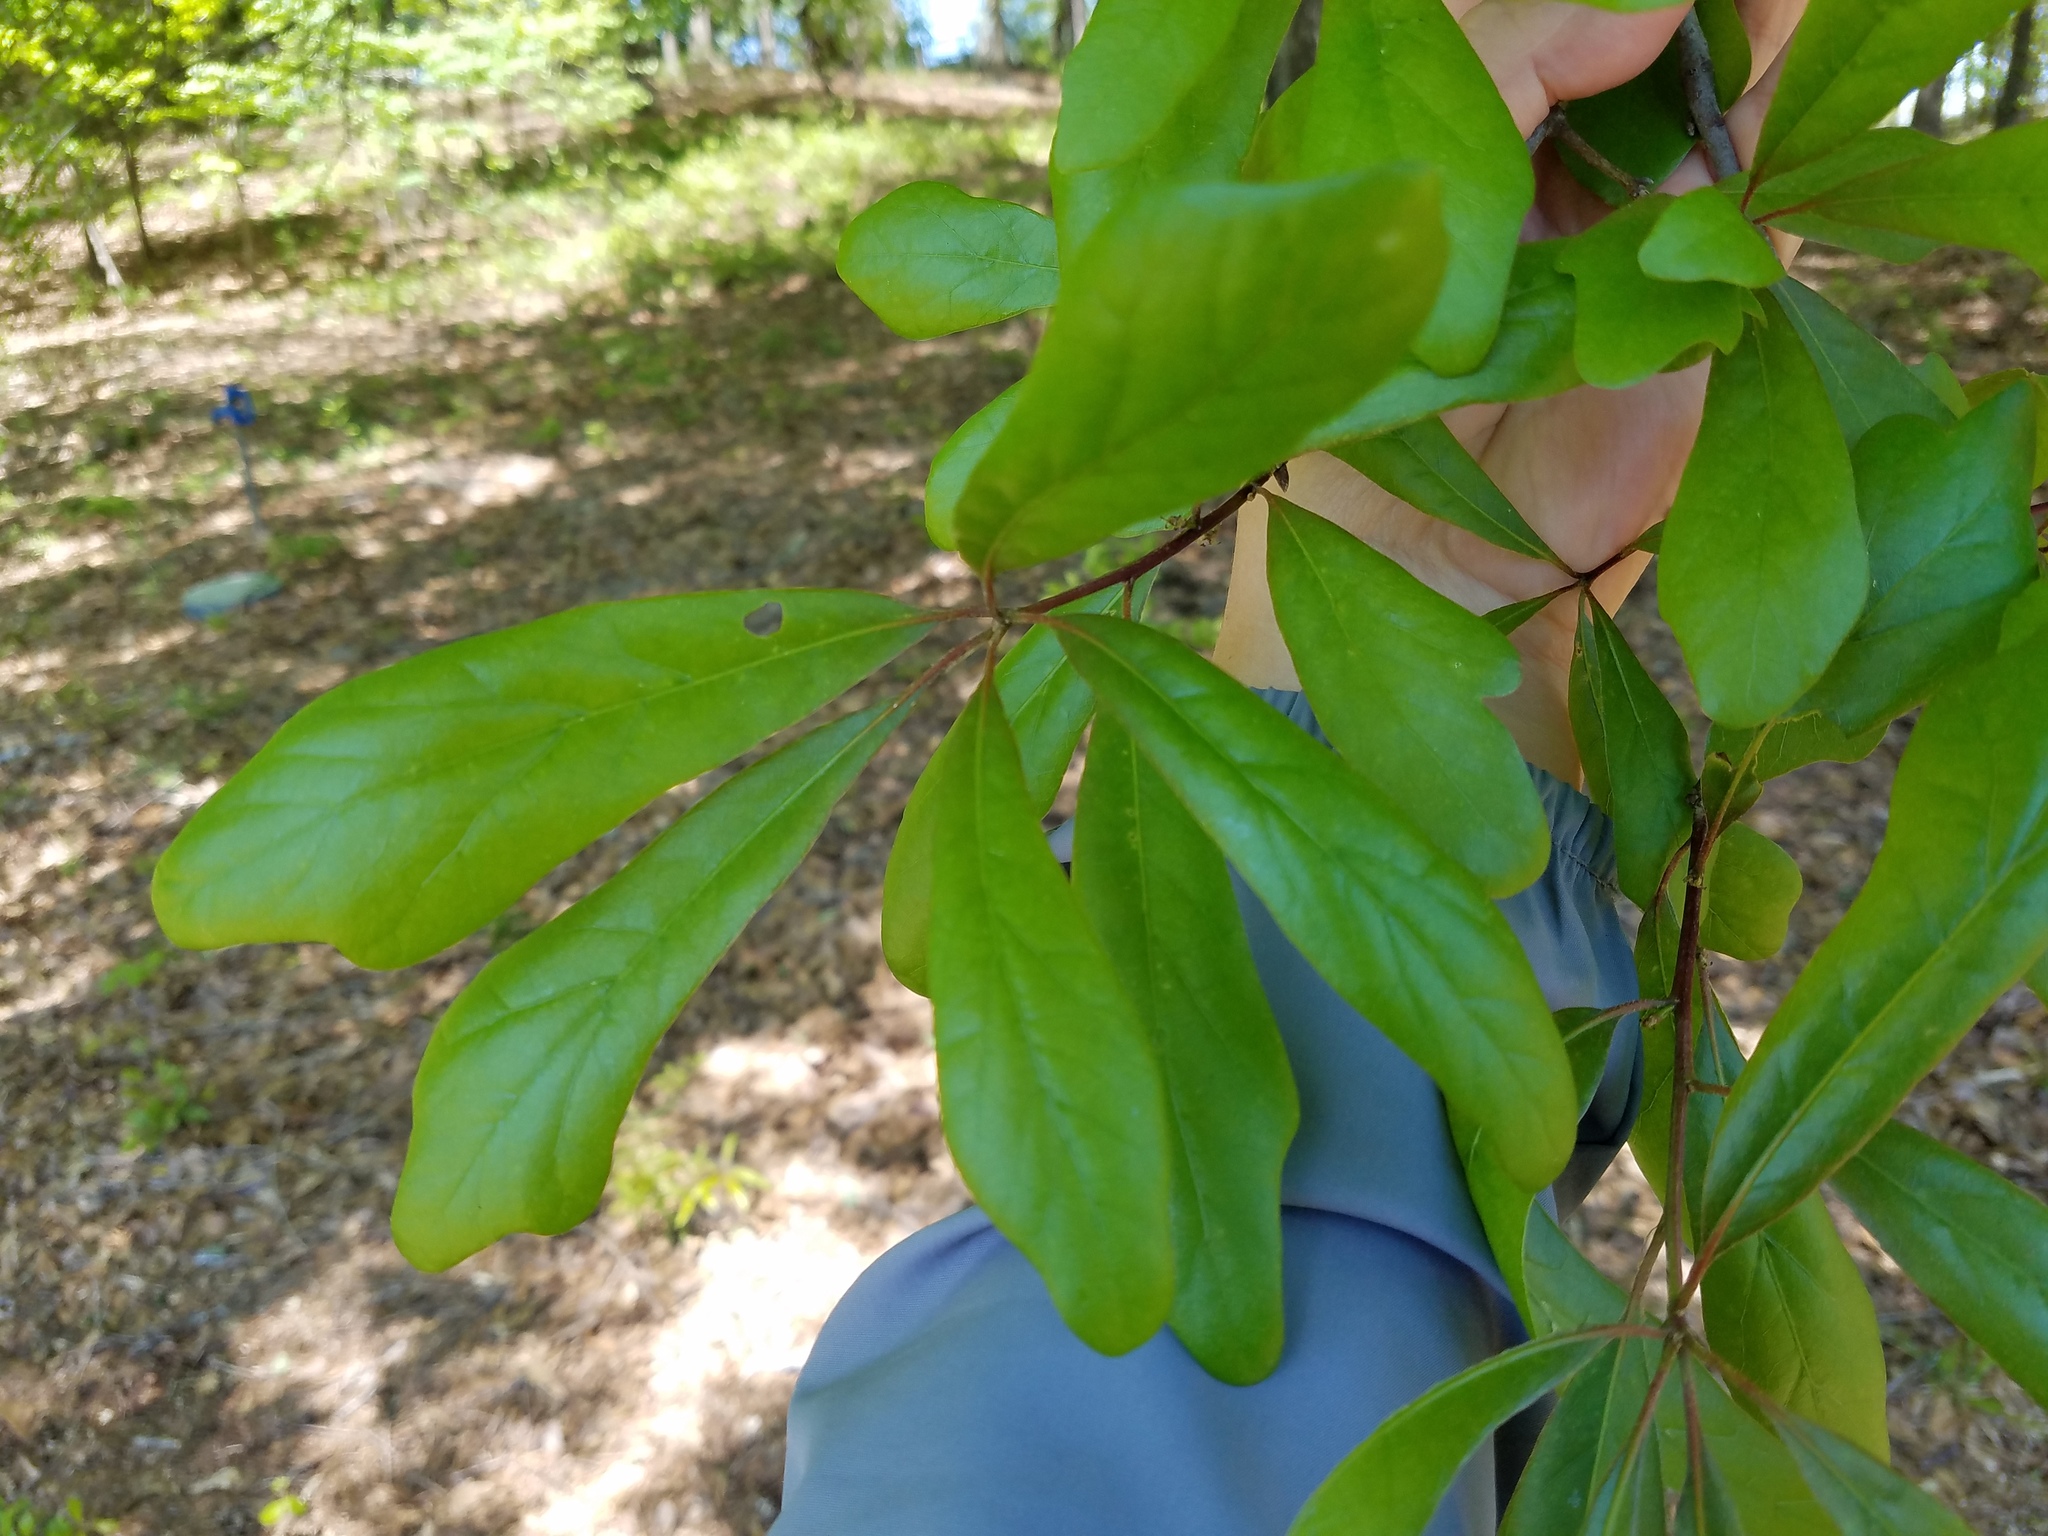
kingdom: Plantae
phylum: Tracheophyta
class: Magnoliopsida
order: Fagales
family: Fagaceae
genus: Quercus
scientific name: Quercus nigra
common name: Water oak
